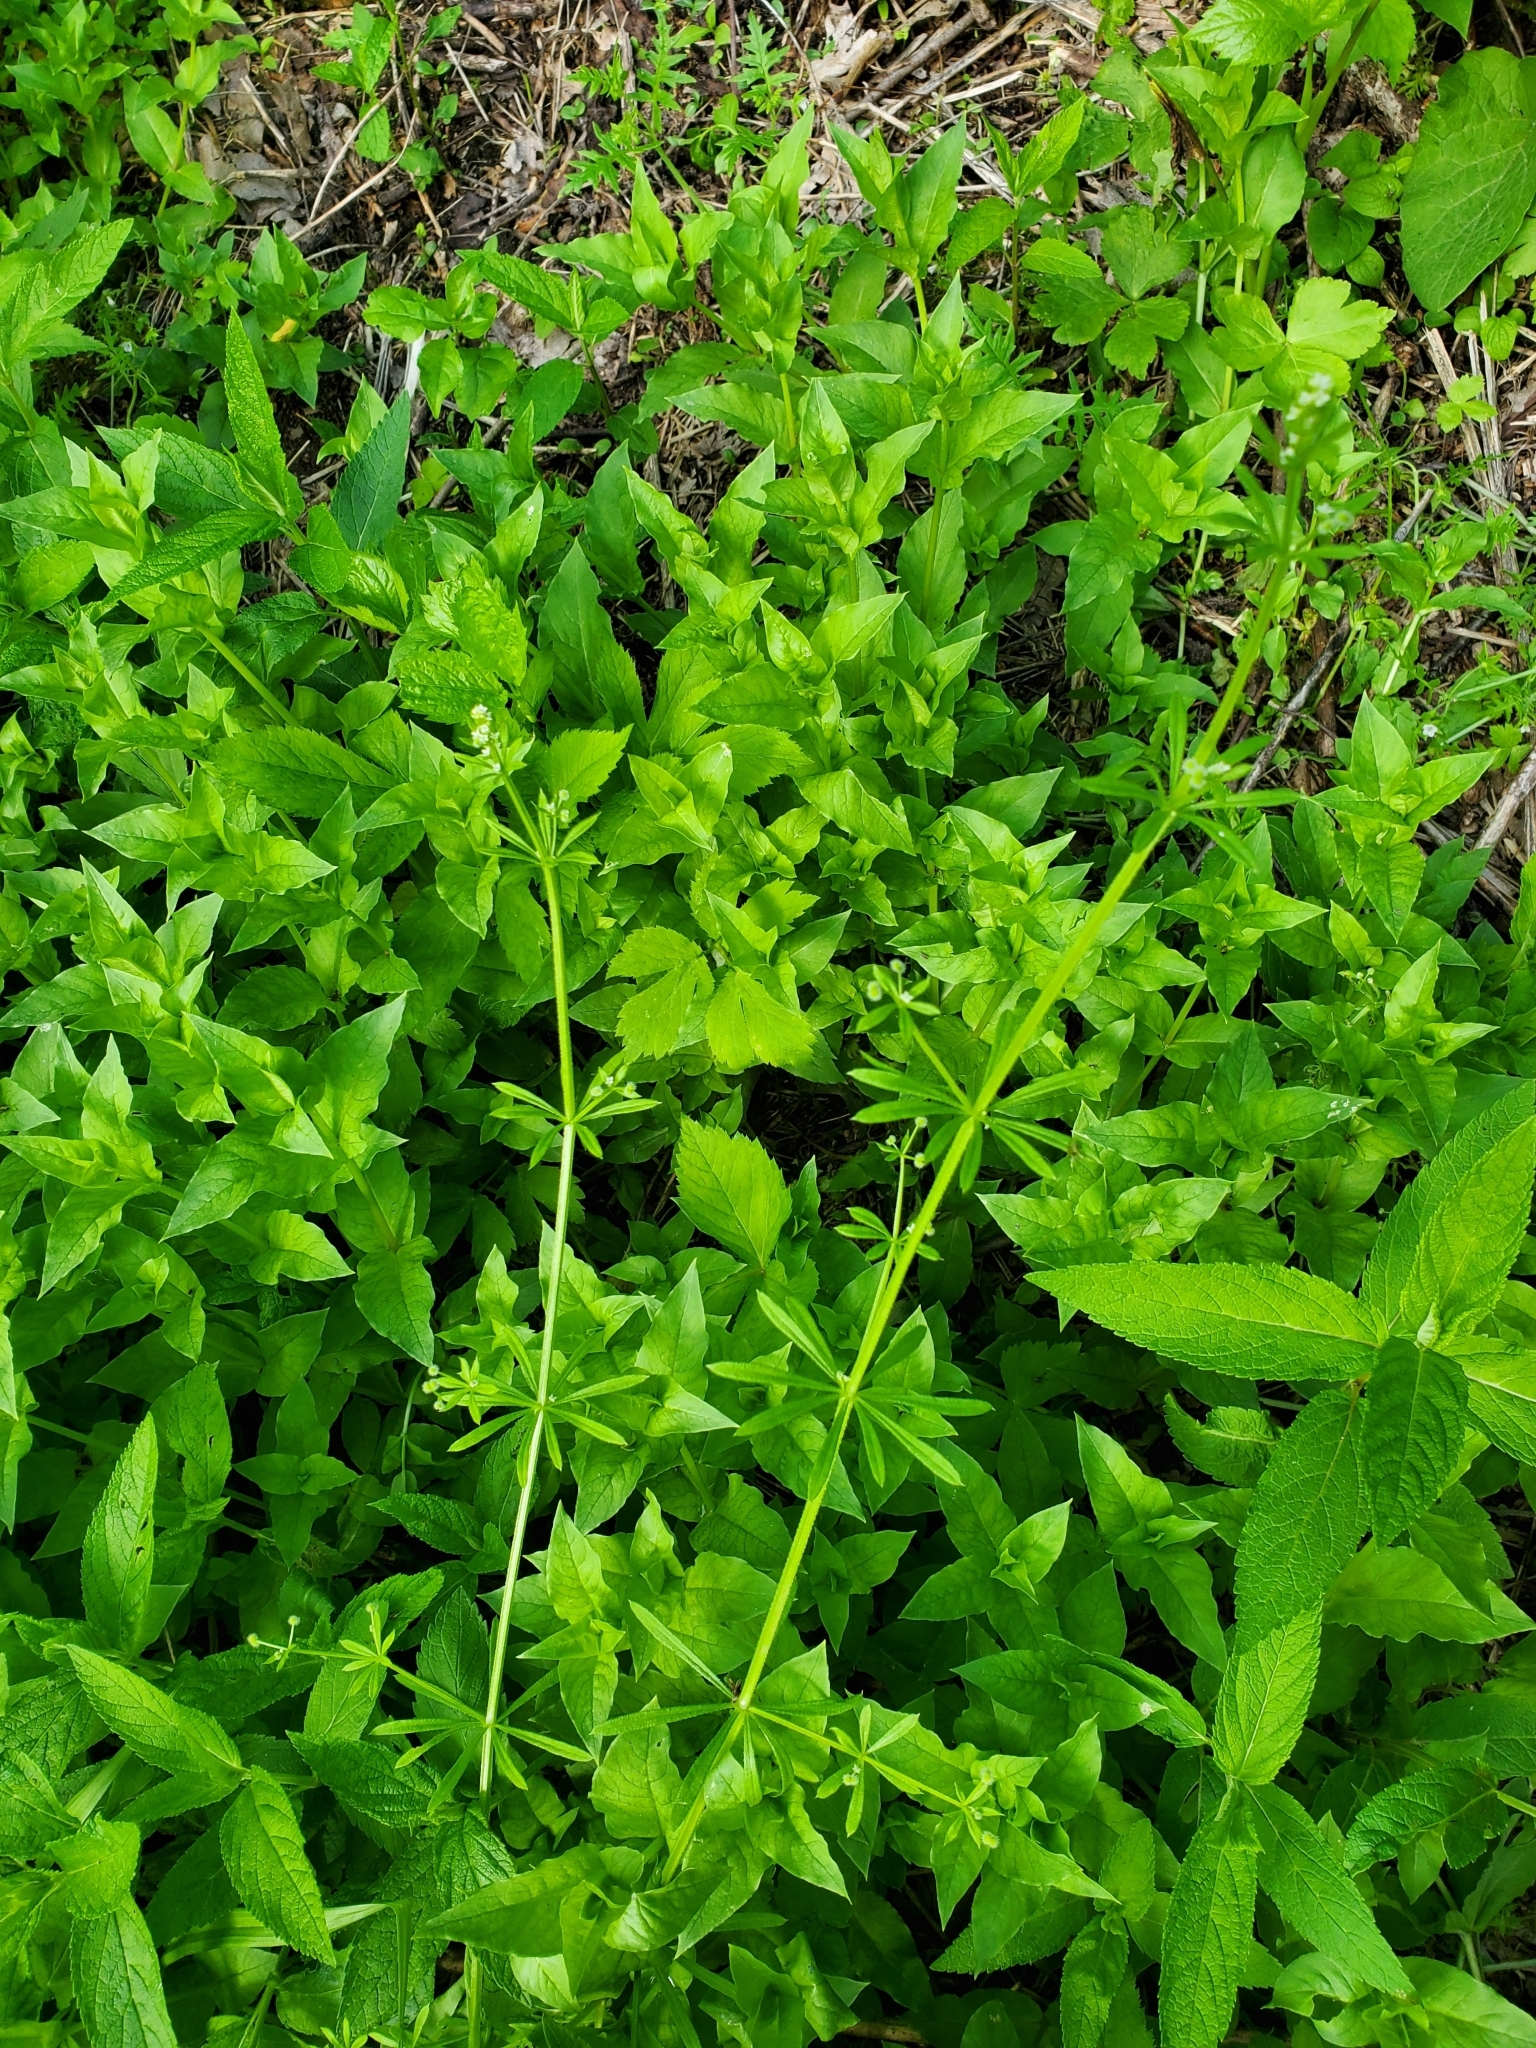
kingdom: Plantae
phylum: Tracheophyta
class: Magnoliopsida
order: Gentianales
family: Rubiaceae
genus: Galium
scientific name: Galium aparine
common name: Cleavers
